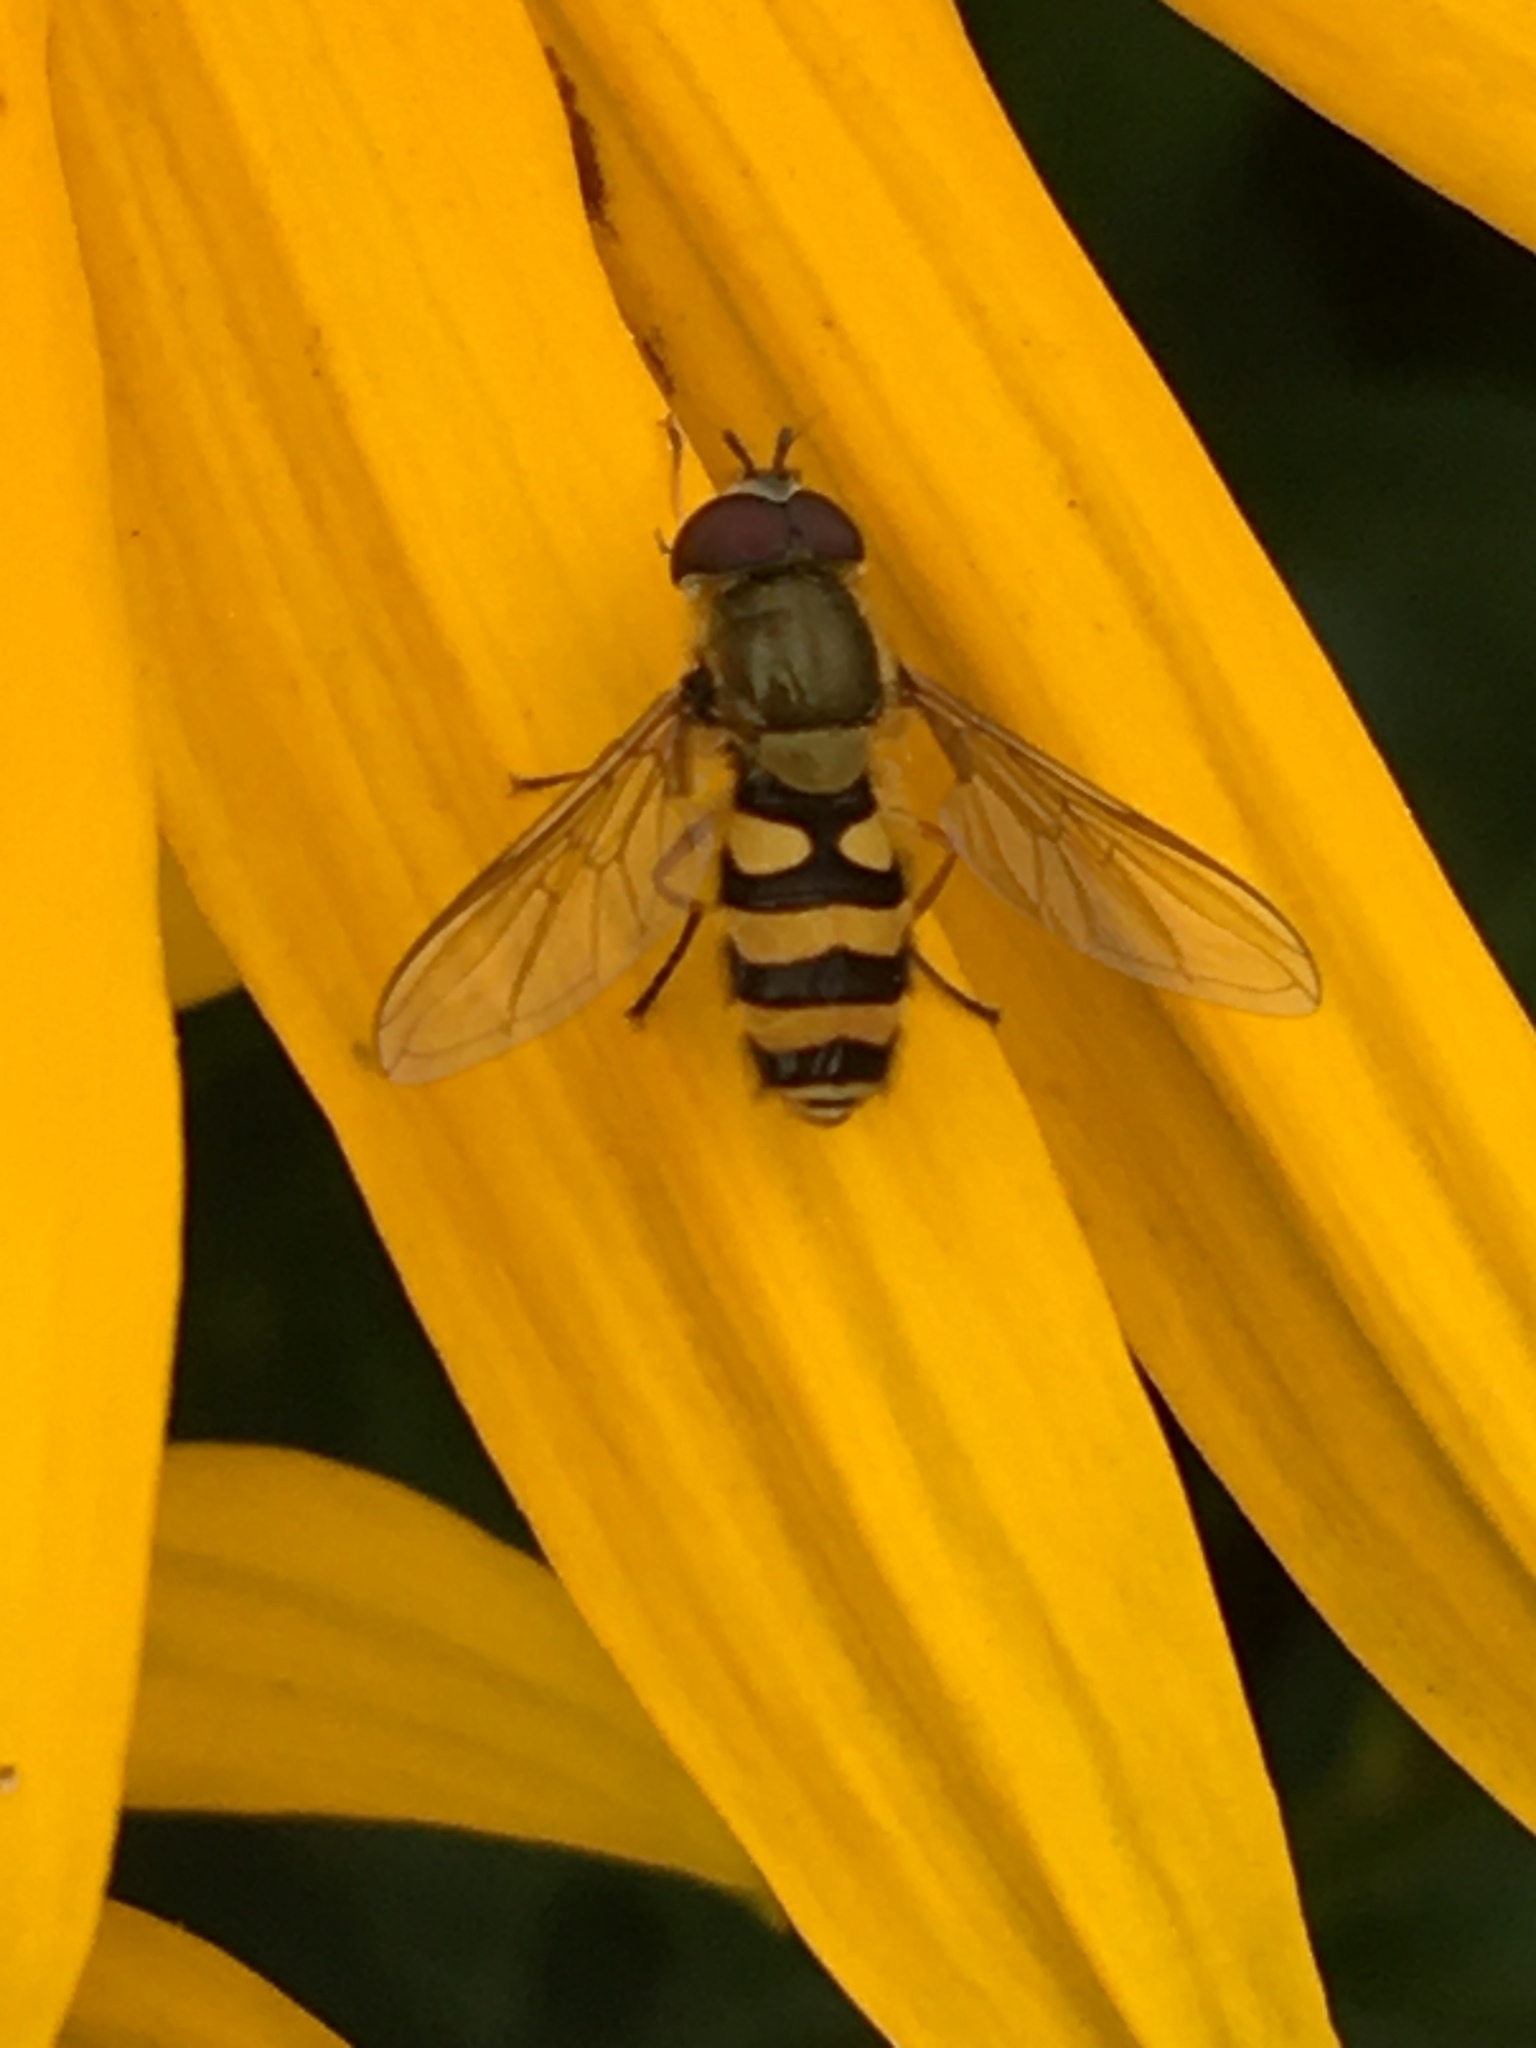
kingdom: Animalia
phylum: Arthropoda
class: Insecta
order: Diptera
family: Syrphidae
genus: Syrphus
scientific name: Syrphus
